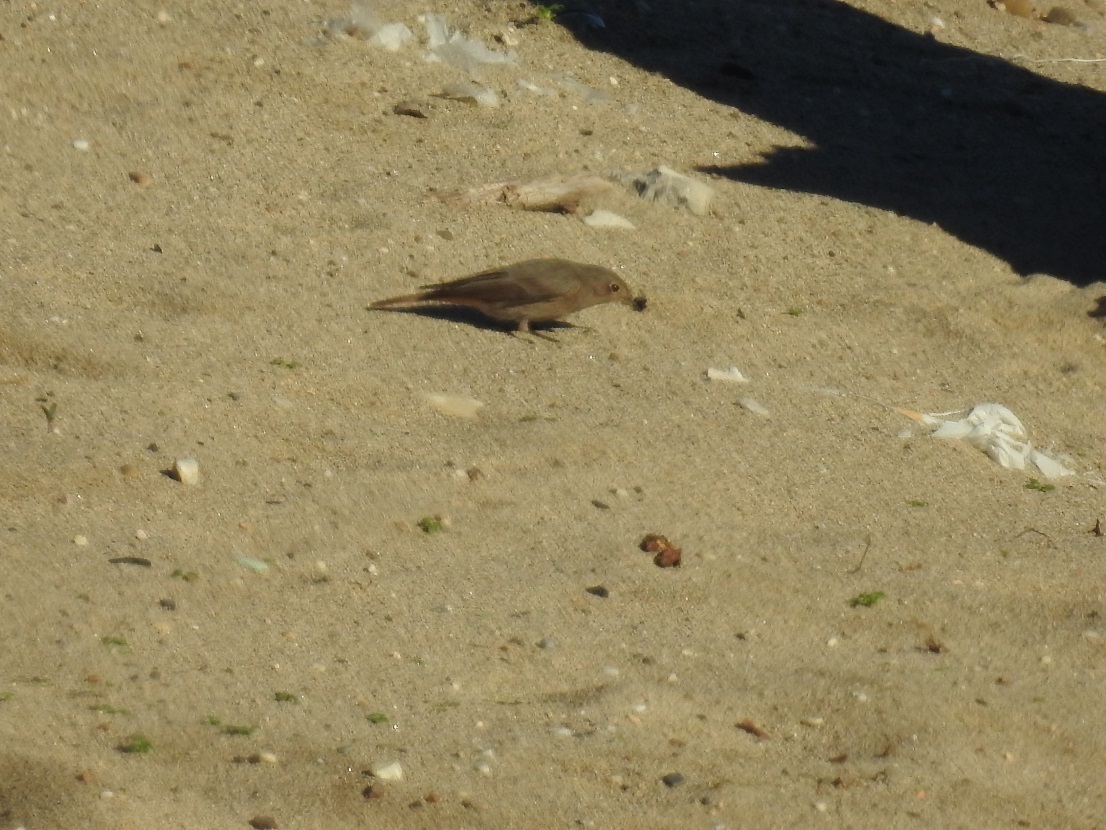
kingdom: Animalia
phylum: Chordata
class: Aves
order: Passeriformes
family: Muscicapidae
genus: Phoenicurus
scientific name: Phoenicurus ochruros
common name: Black redstart
